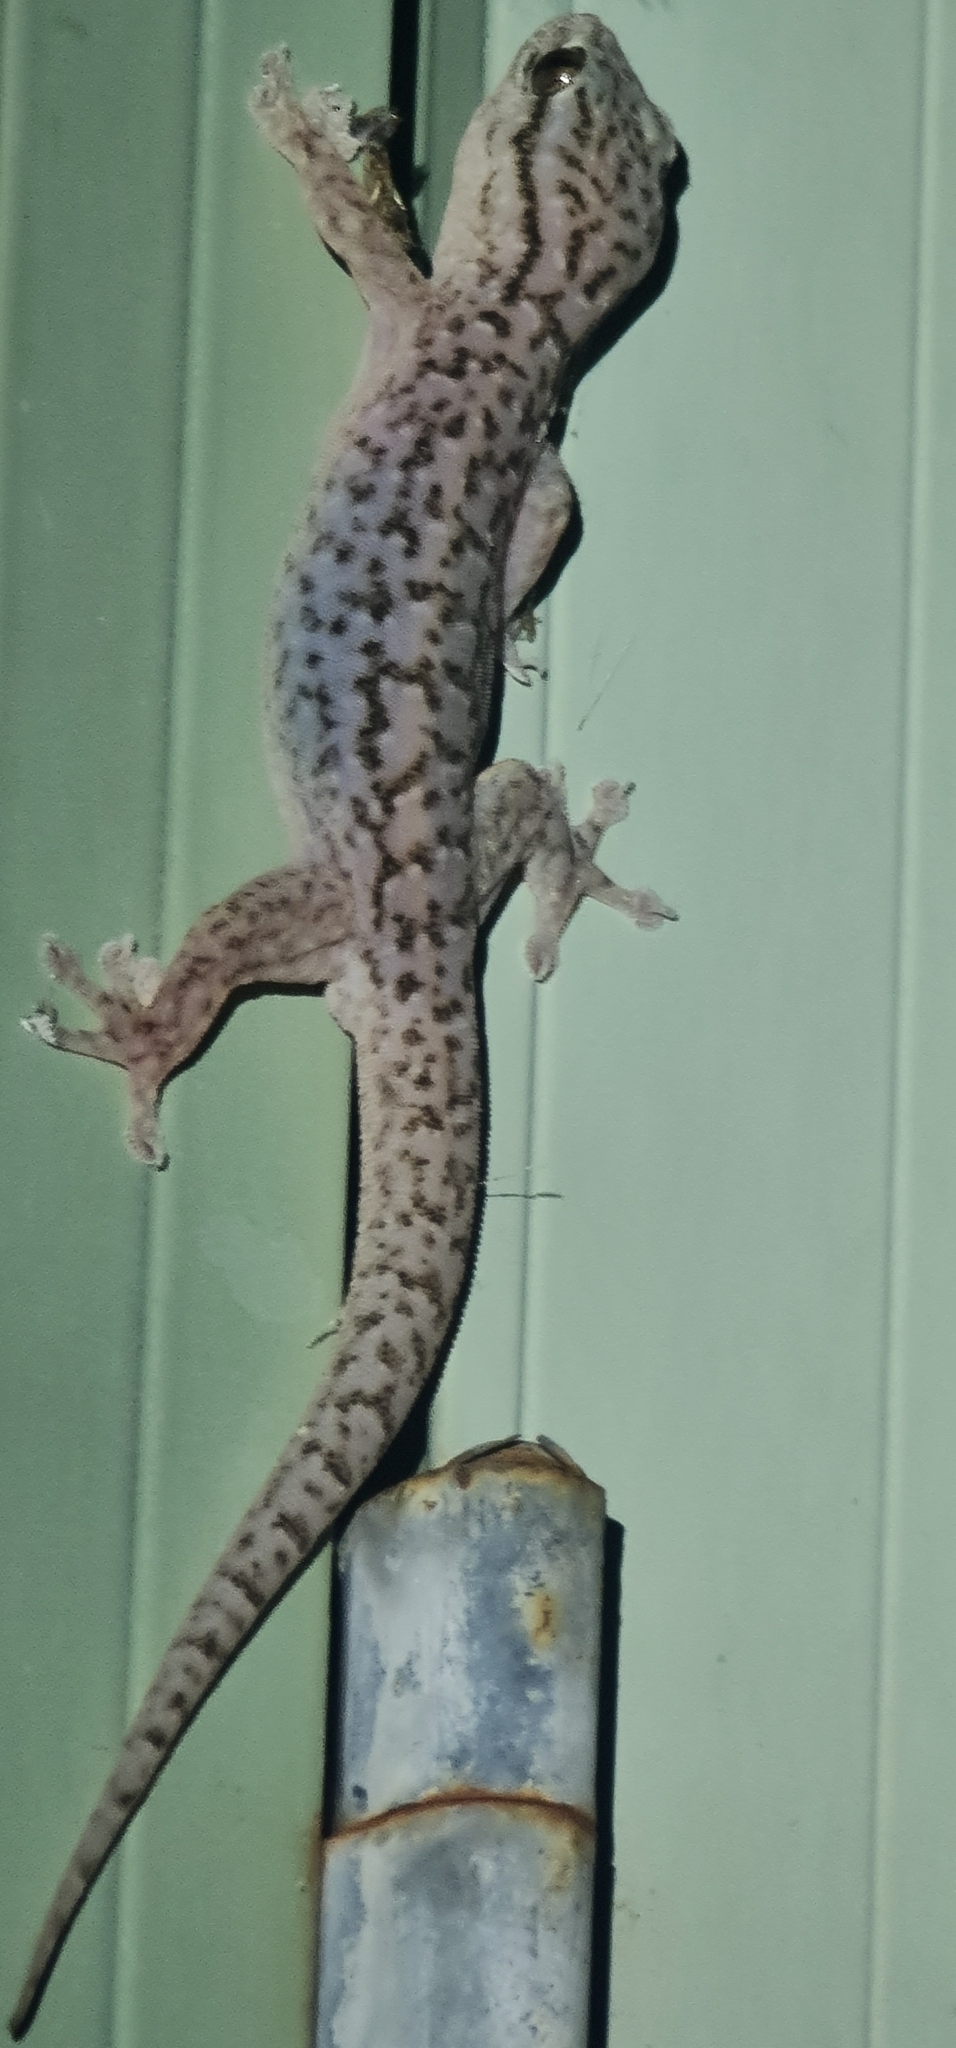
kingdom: Animalia
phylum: Chordata
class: Squamata
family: Gekkonidae
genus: Gehyra
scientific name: Gehyra versicolor
